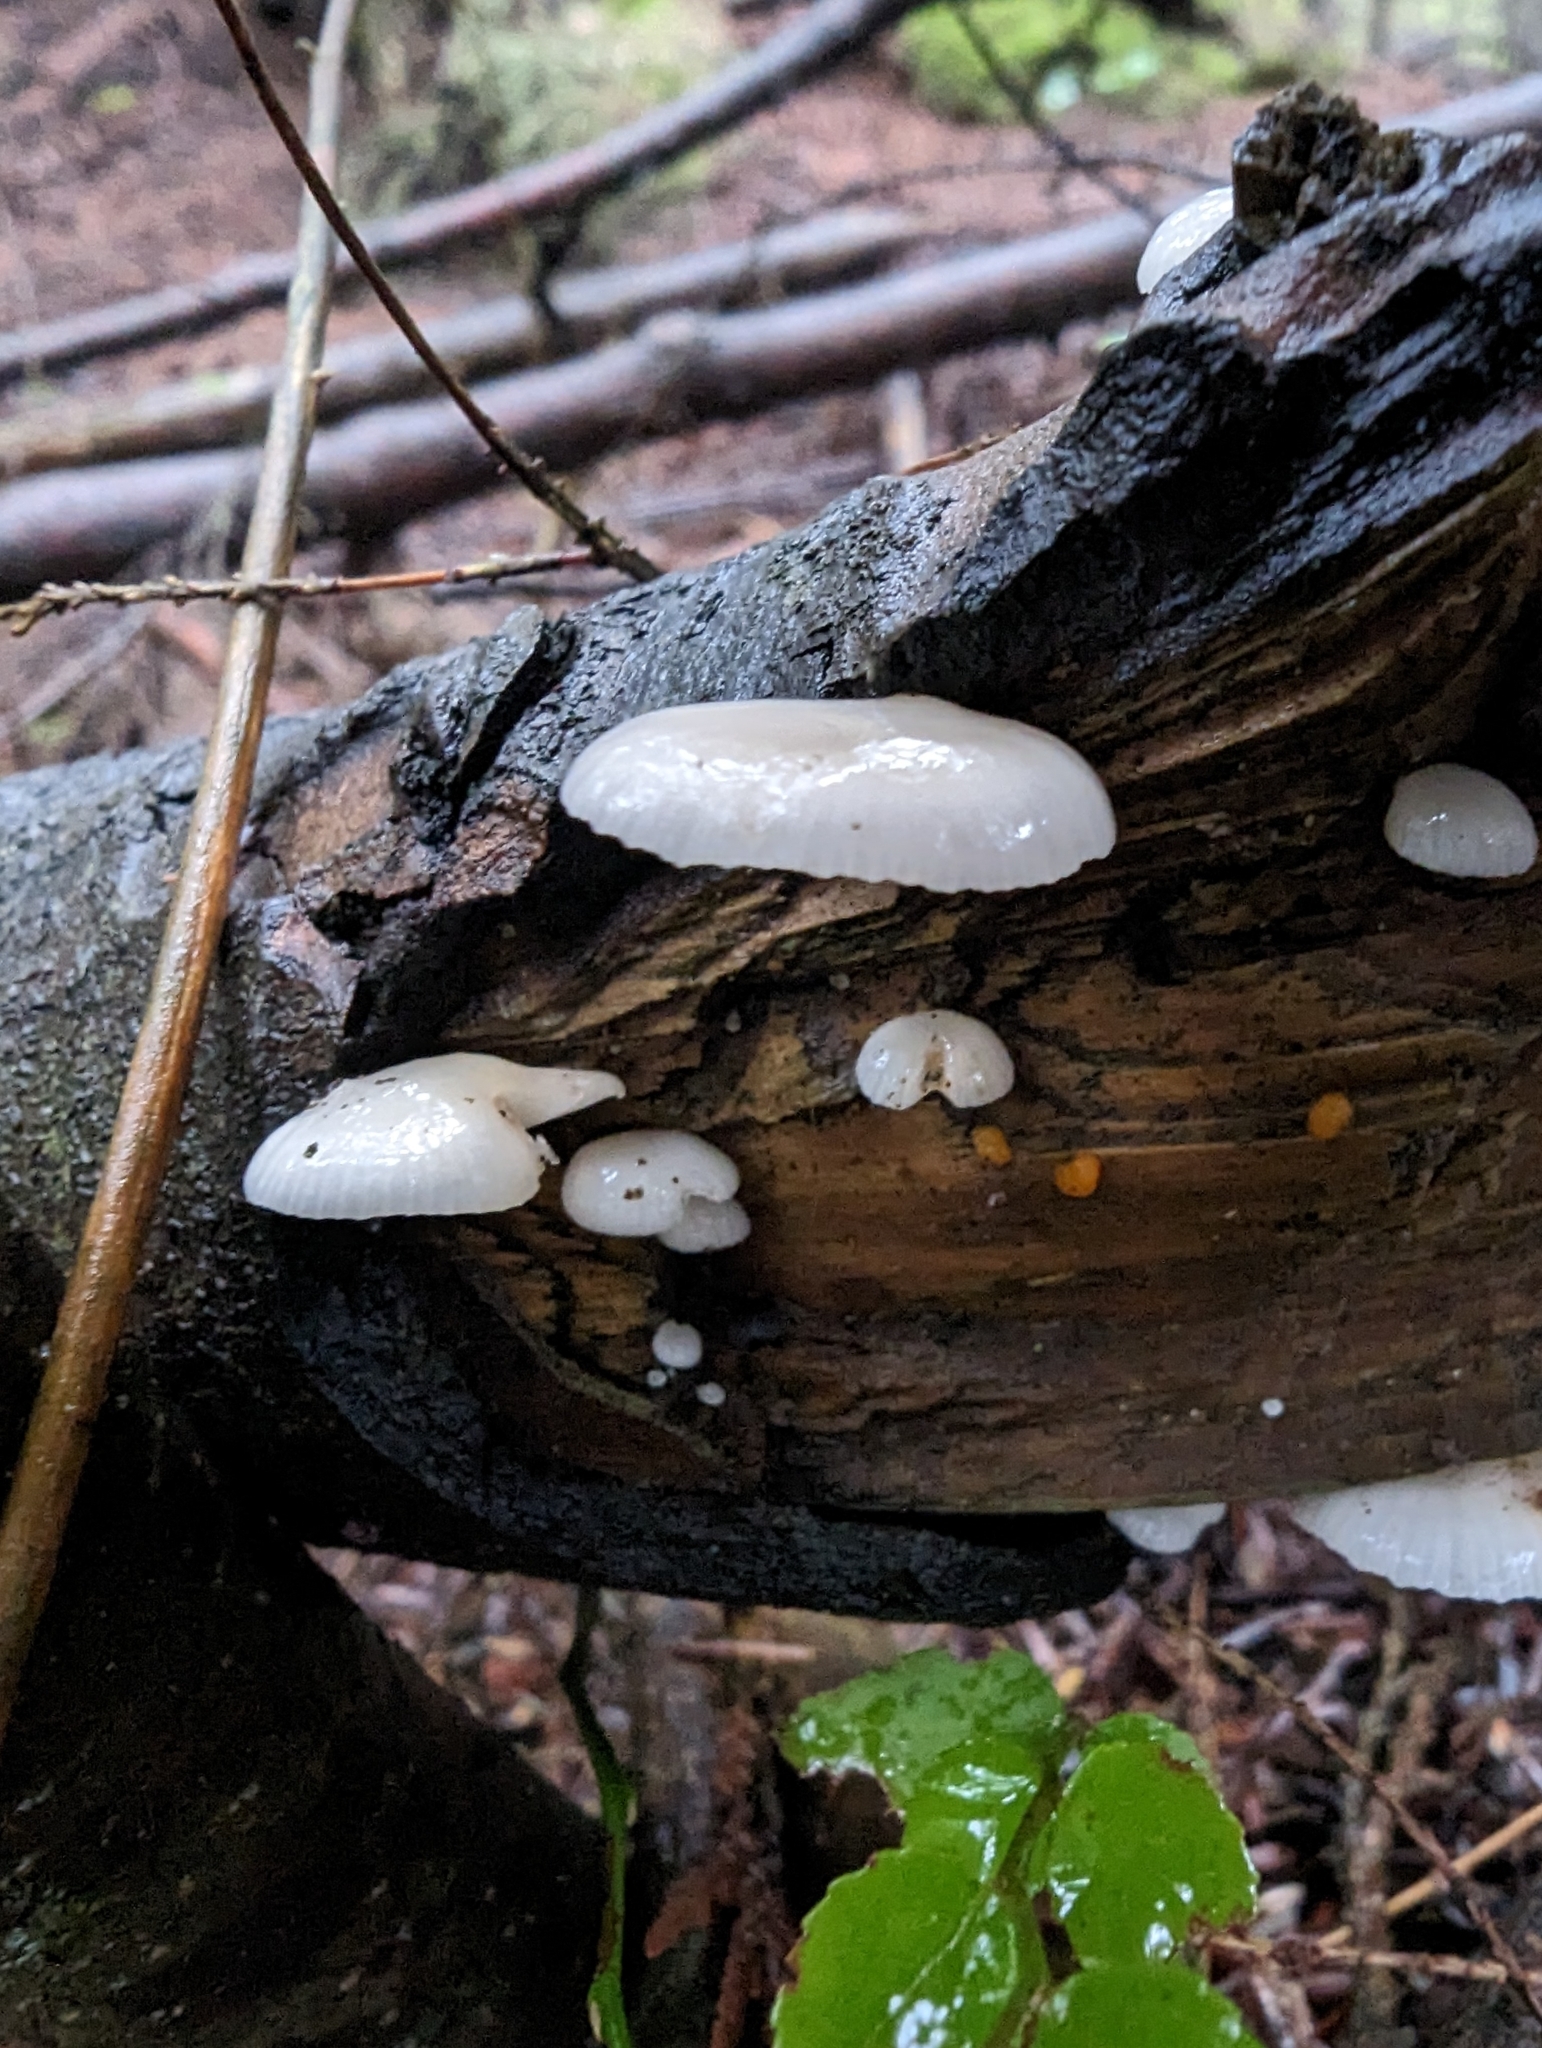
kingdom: Fungi
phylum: Basidiomycota
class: Agaricomycetes
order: Agaricales
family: Mycenaceae
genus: Panellus
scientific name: Panellus longinquus
